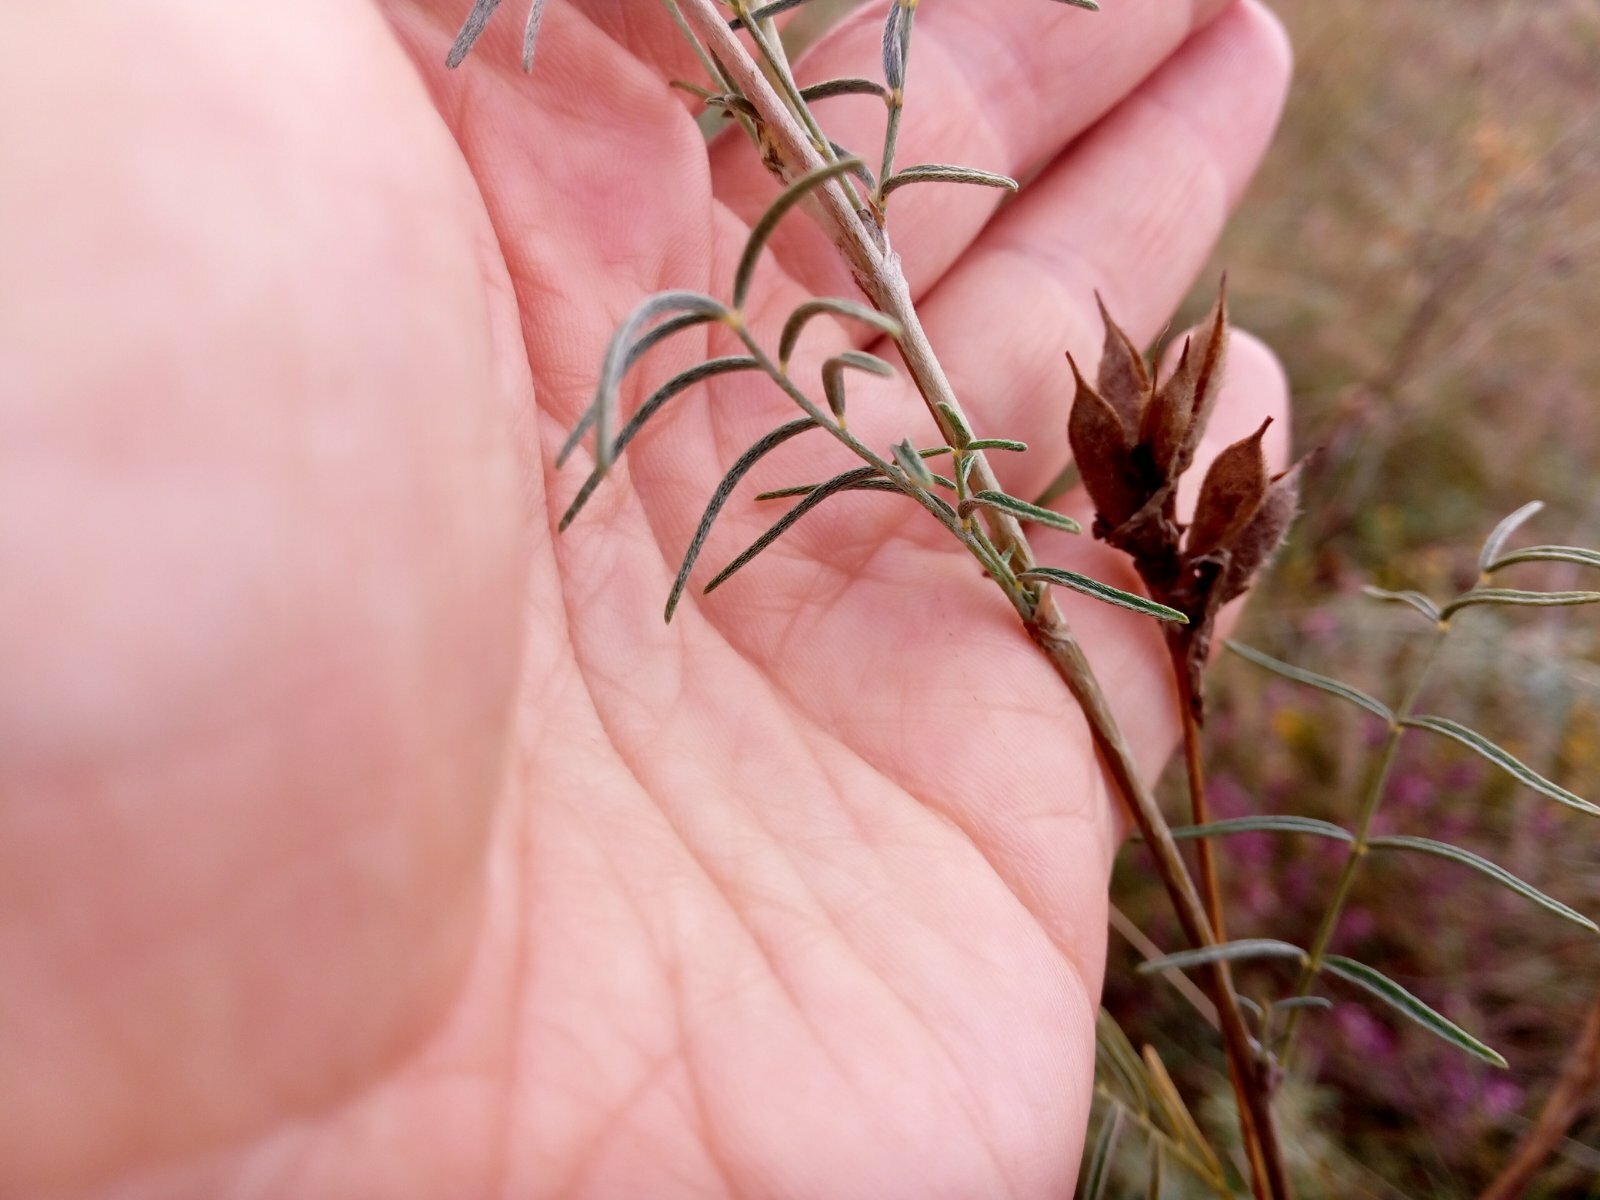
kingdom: Plantae
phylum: Tracheophyta
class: Magnoliopsida
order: Fabales
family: Fabaceae
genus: Astragalus
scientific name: Astragalus cornutus
